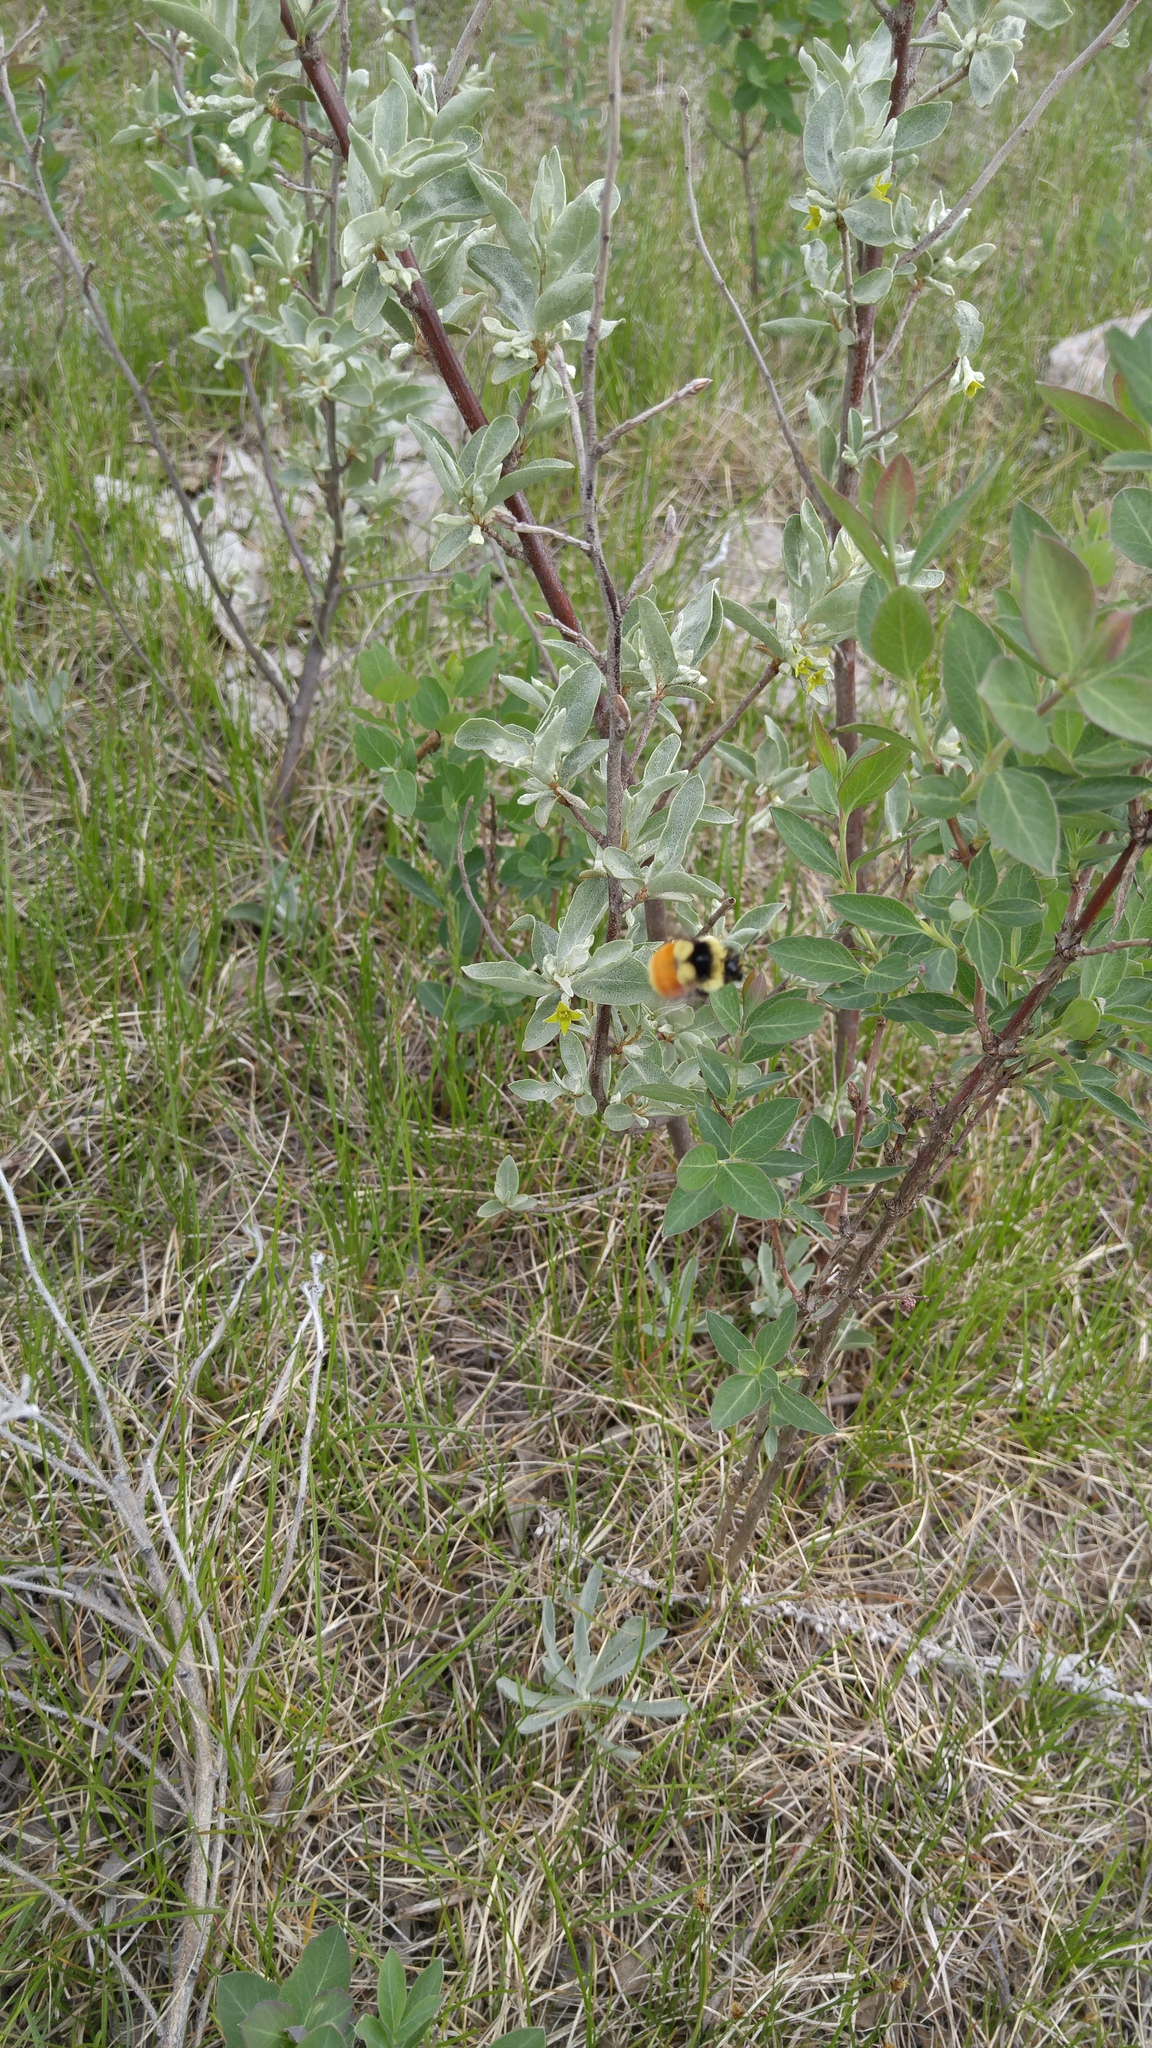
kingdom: Animalia
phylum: Arthropoda
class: Insecta
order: Hymenoptera
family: Apidae
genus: Bombus
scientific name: Bombus ternarius
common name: Tri-colored bumble bee
